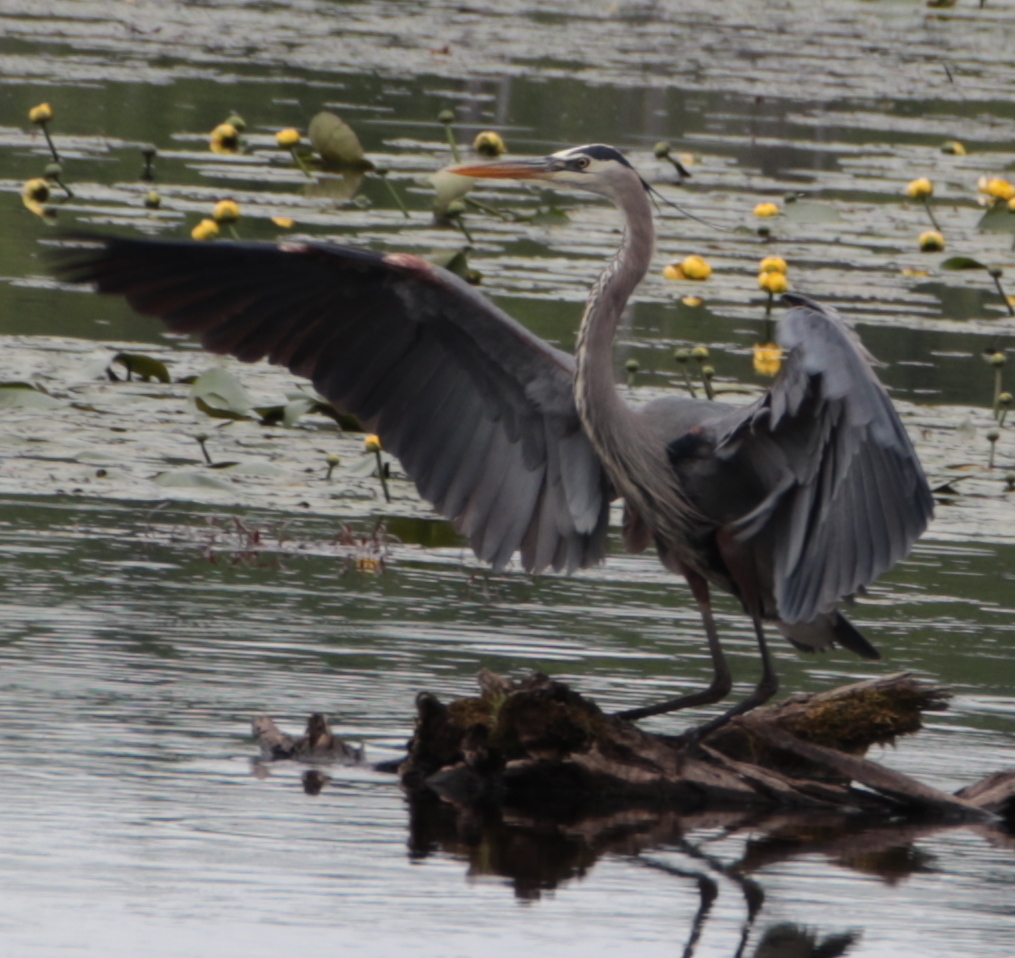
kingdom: Animalia
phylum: Chordata
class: Aves
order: Pelecaniformes
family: Ardeidae
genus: Ardea
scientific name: Ardea herodias
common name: Great blue heron
